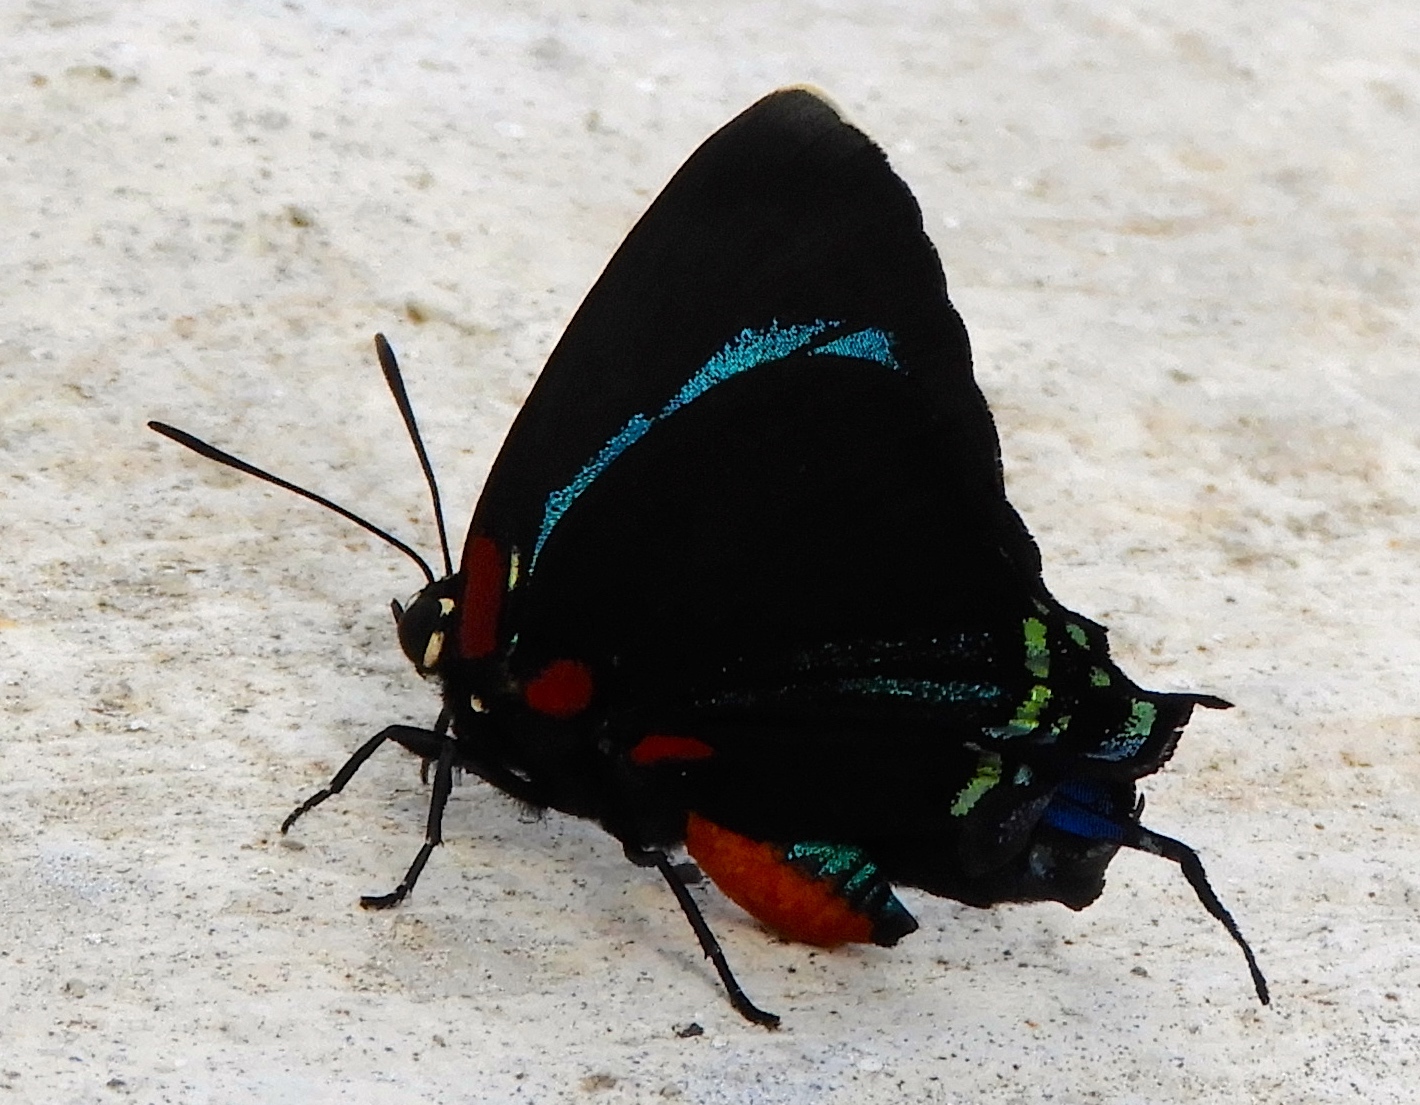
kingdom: Animalia
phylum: Arthropoda
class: Insecta
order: Lepidoptera
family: Lycaenidae
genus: Atlides
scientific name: Atlides
